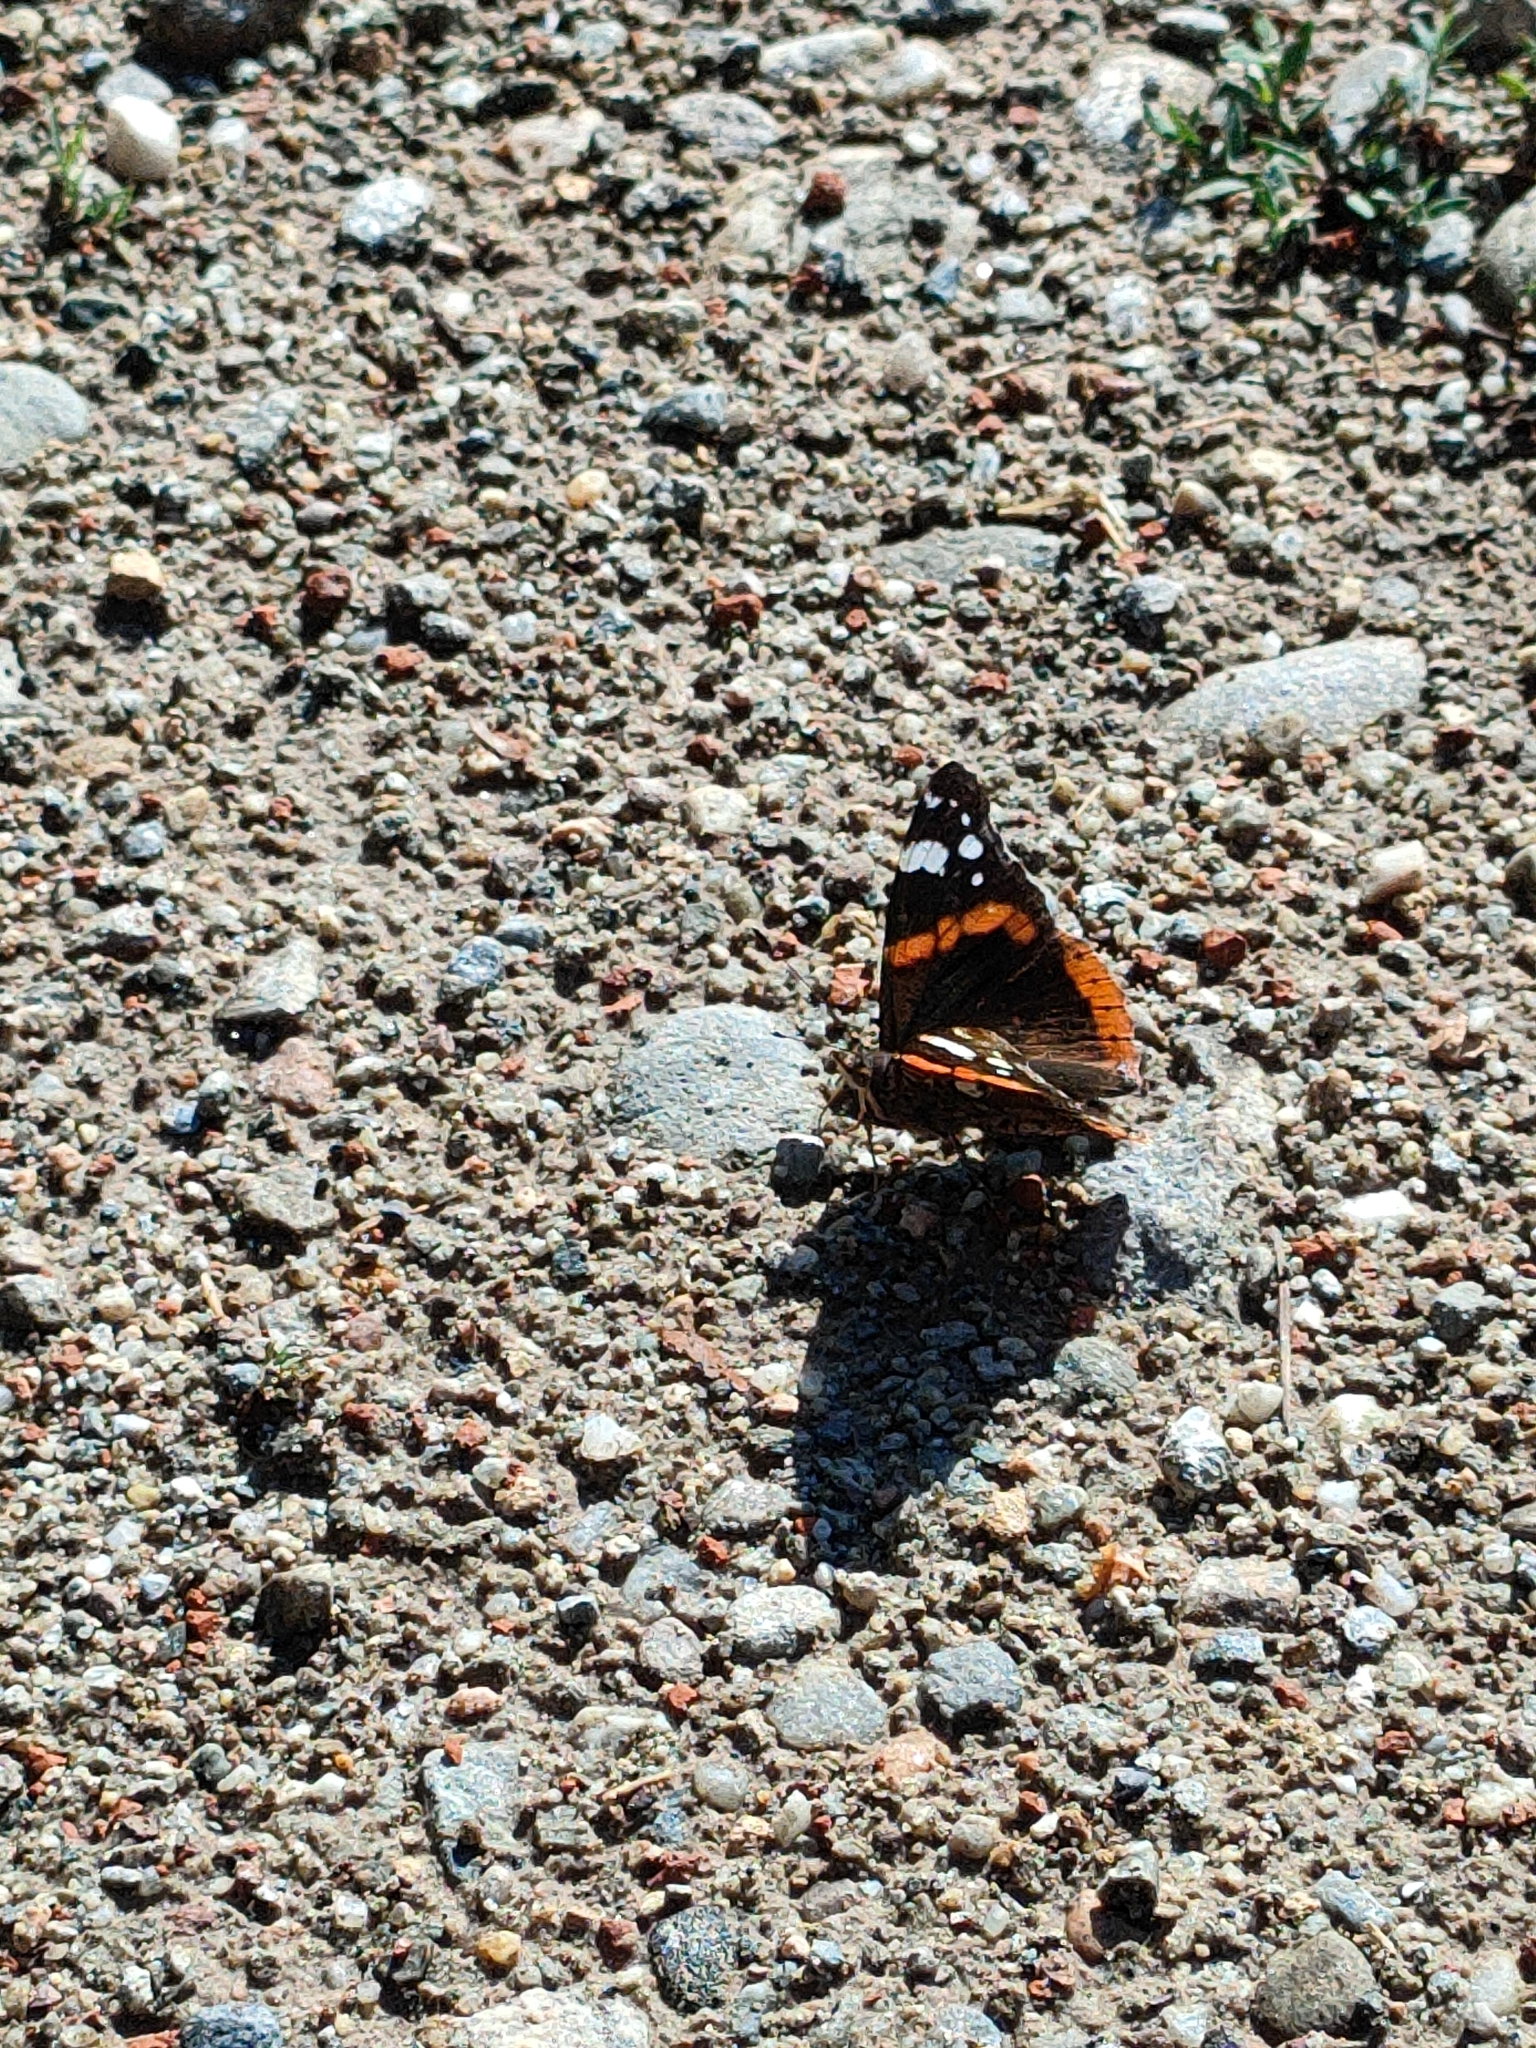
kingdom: Animalia
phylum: Arthropoda
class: Insecta
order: Lepidoptera
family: Nymphalidae
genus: Vanessa
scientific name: Vanessa atalanta
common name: Red admiral
